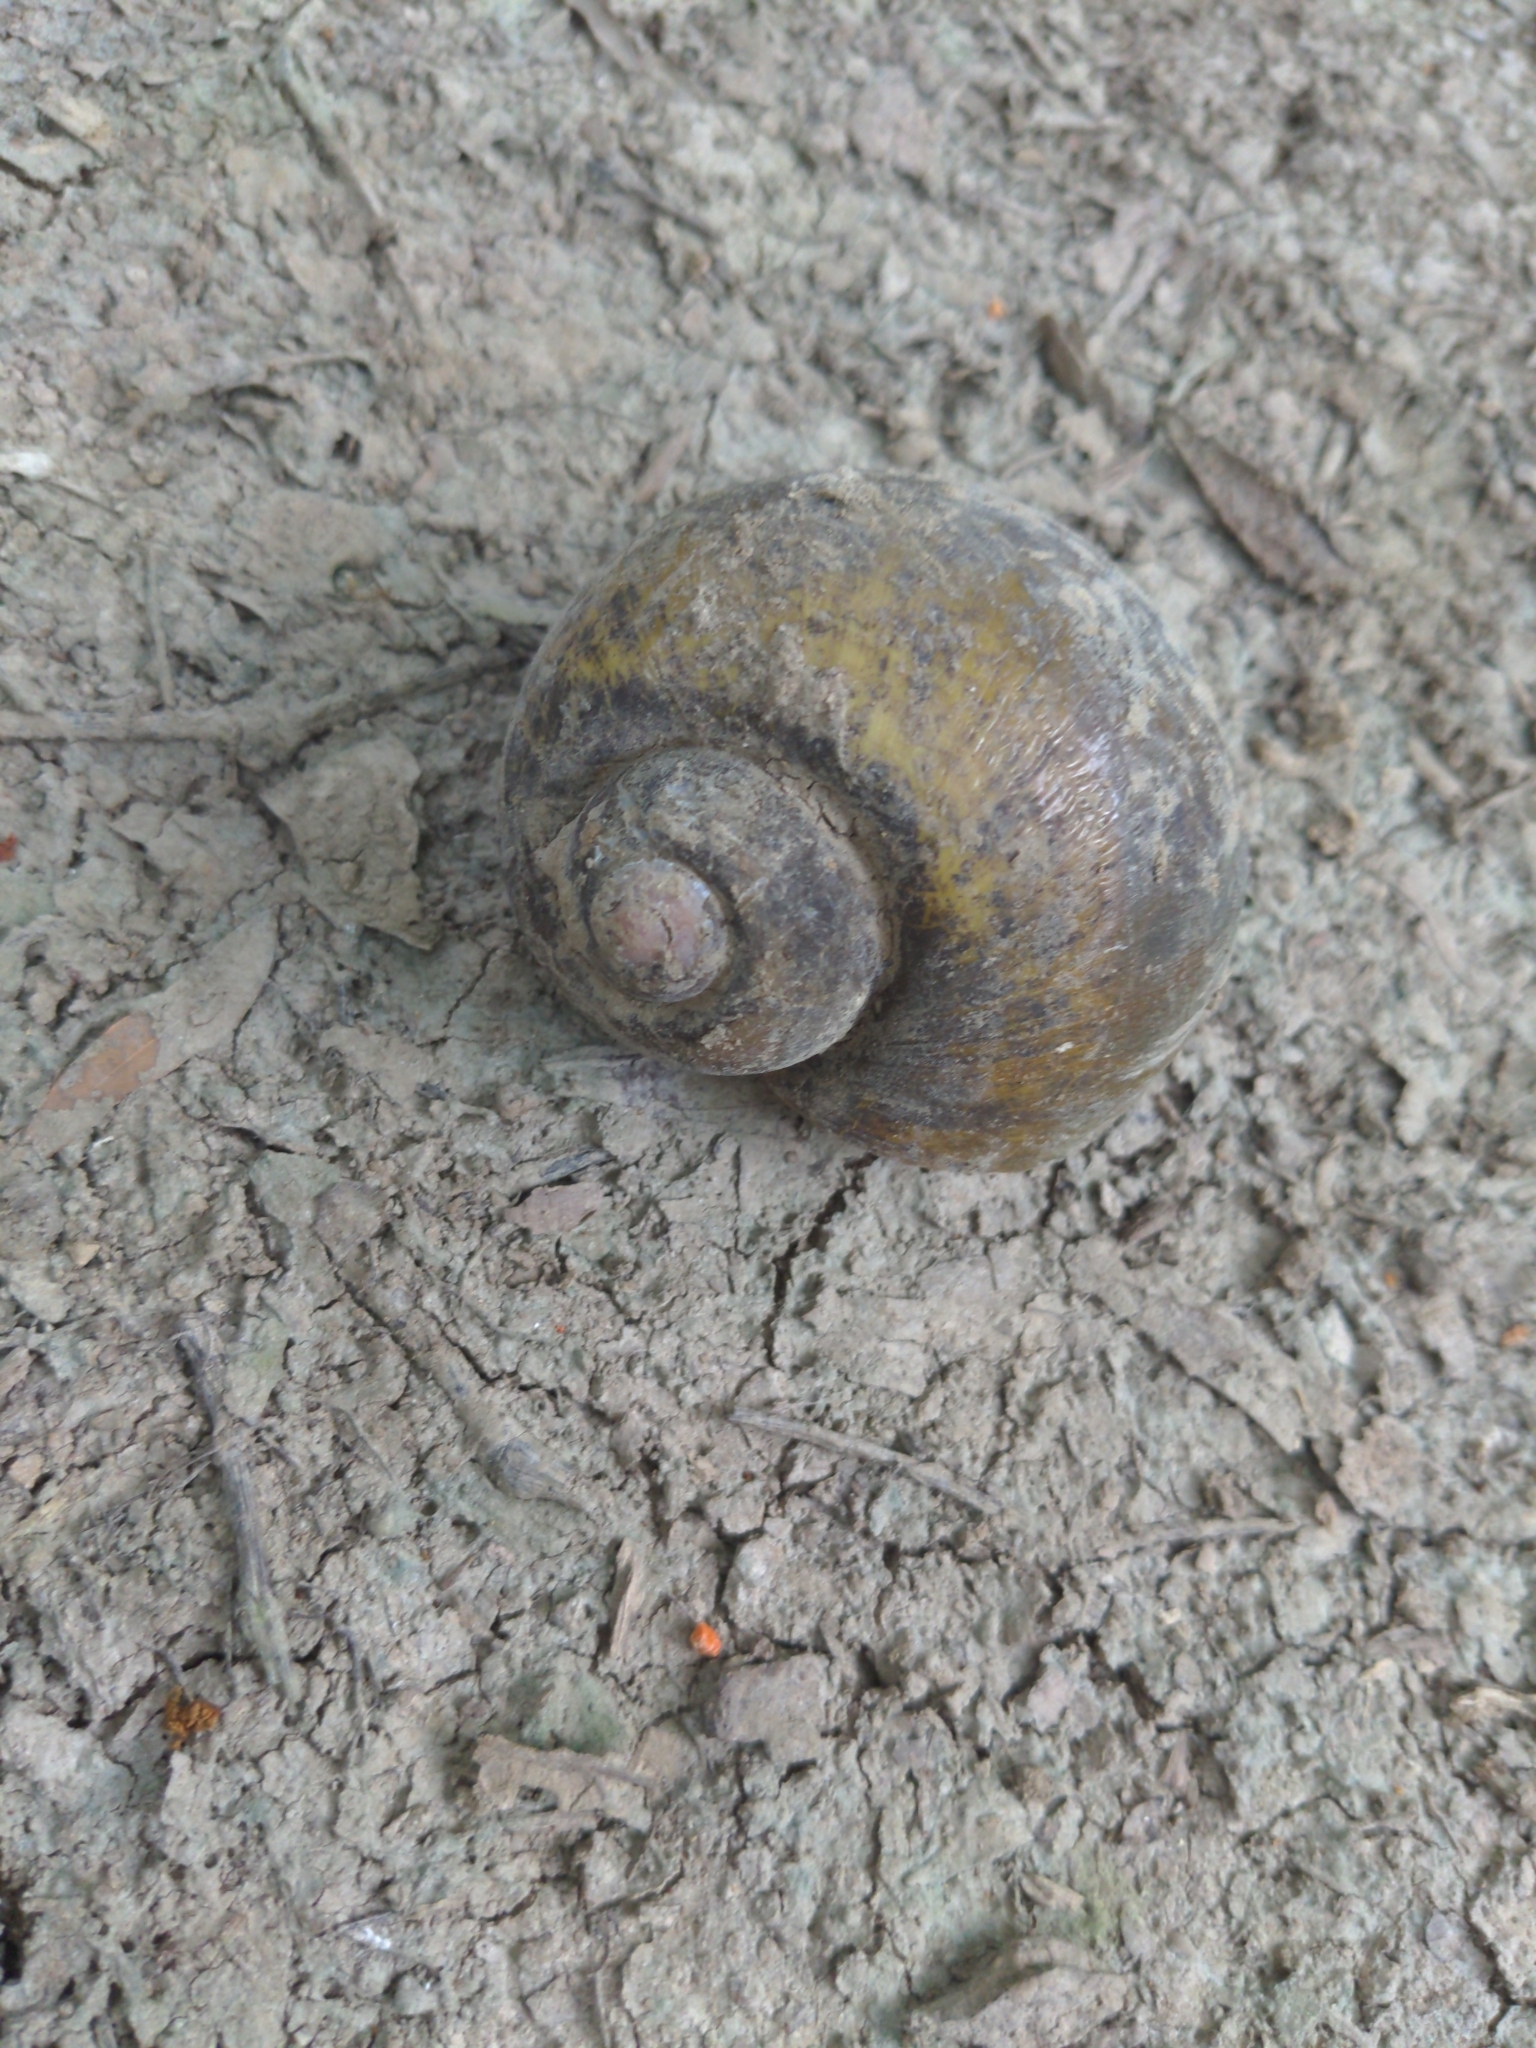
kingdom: Animalia
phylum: Mollusca
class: Gastropoda
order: Architaenioglossa
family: Ampullariidae
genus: Pomacea
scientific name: Pomacea canaliculata
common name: Channeled applesnail
